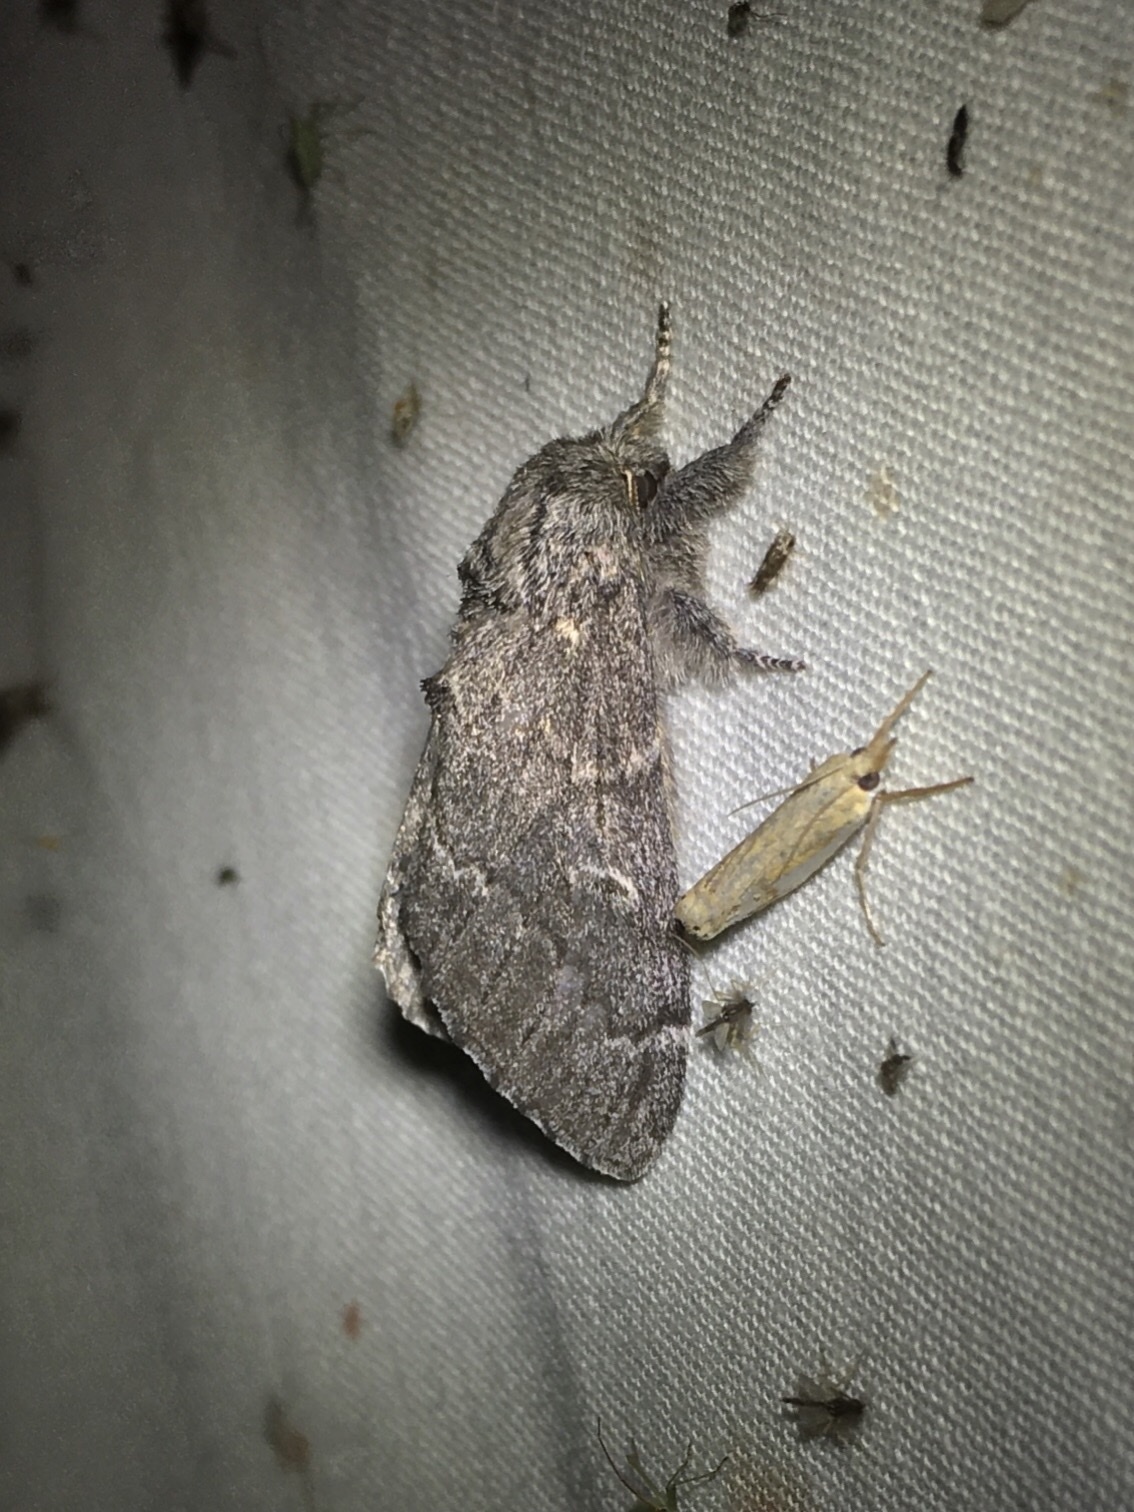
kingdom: Animalia
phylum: Arthropoda
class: Insecta
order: Lepidoptera
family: Notodontidae
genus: Notodonta
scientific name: Notodonta torva
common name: Large dark prominent
